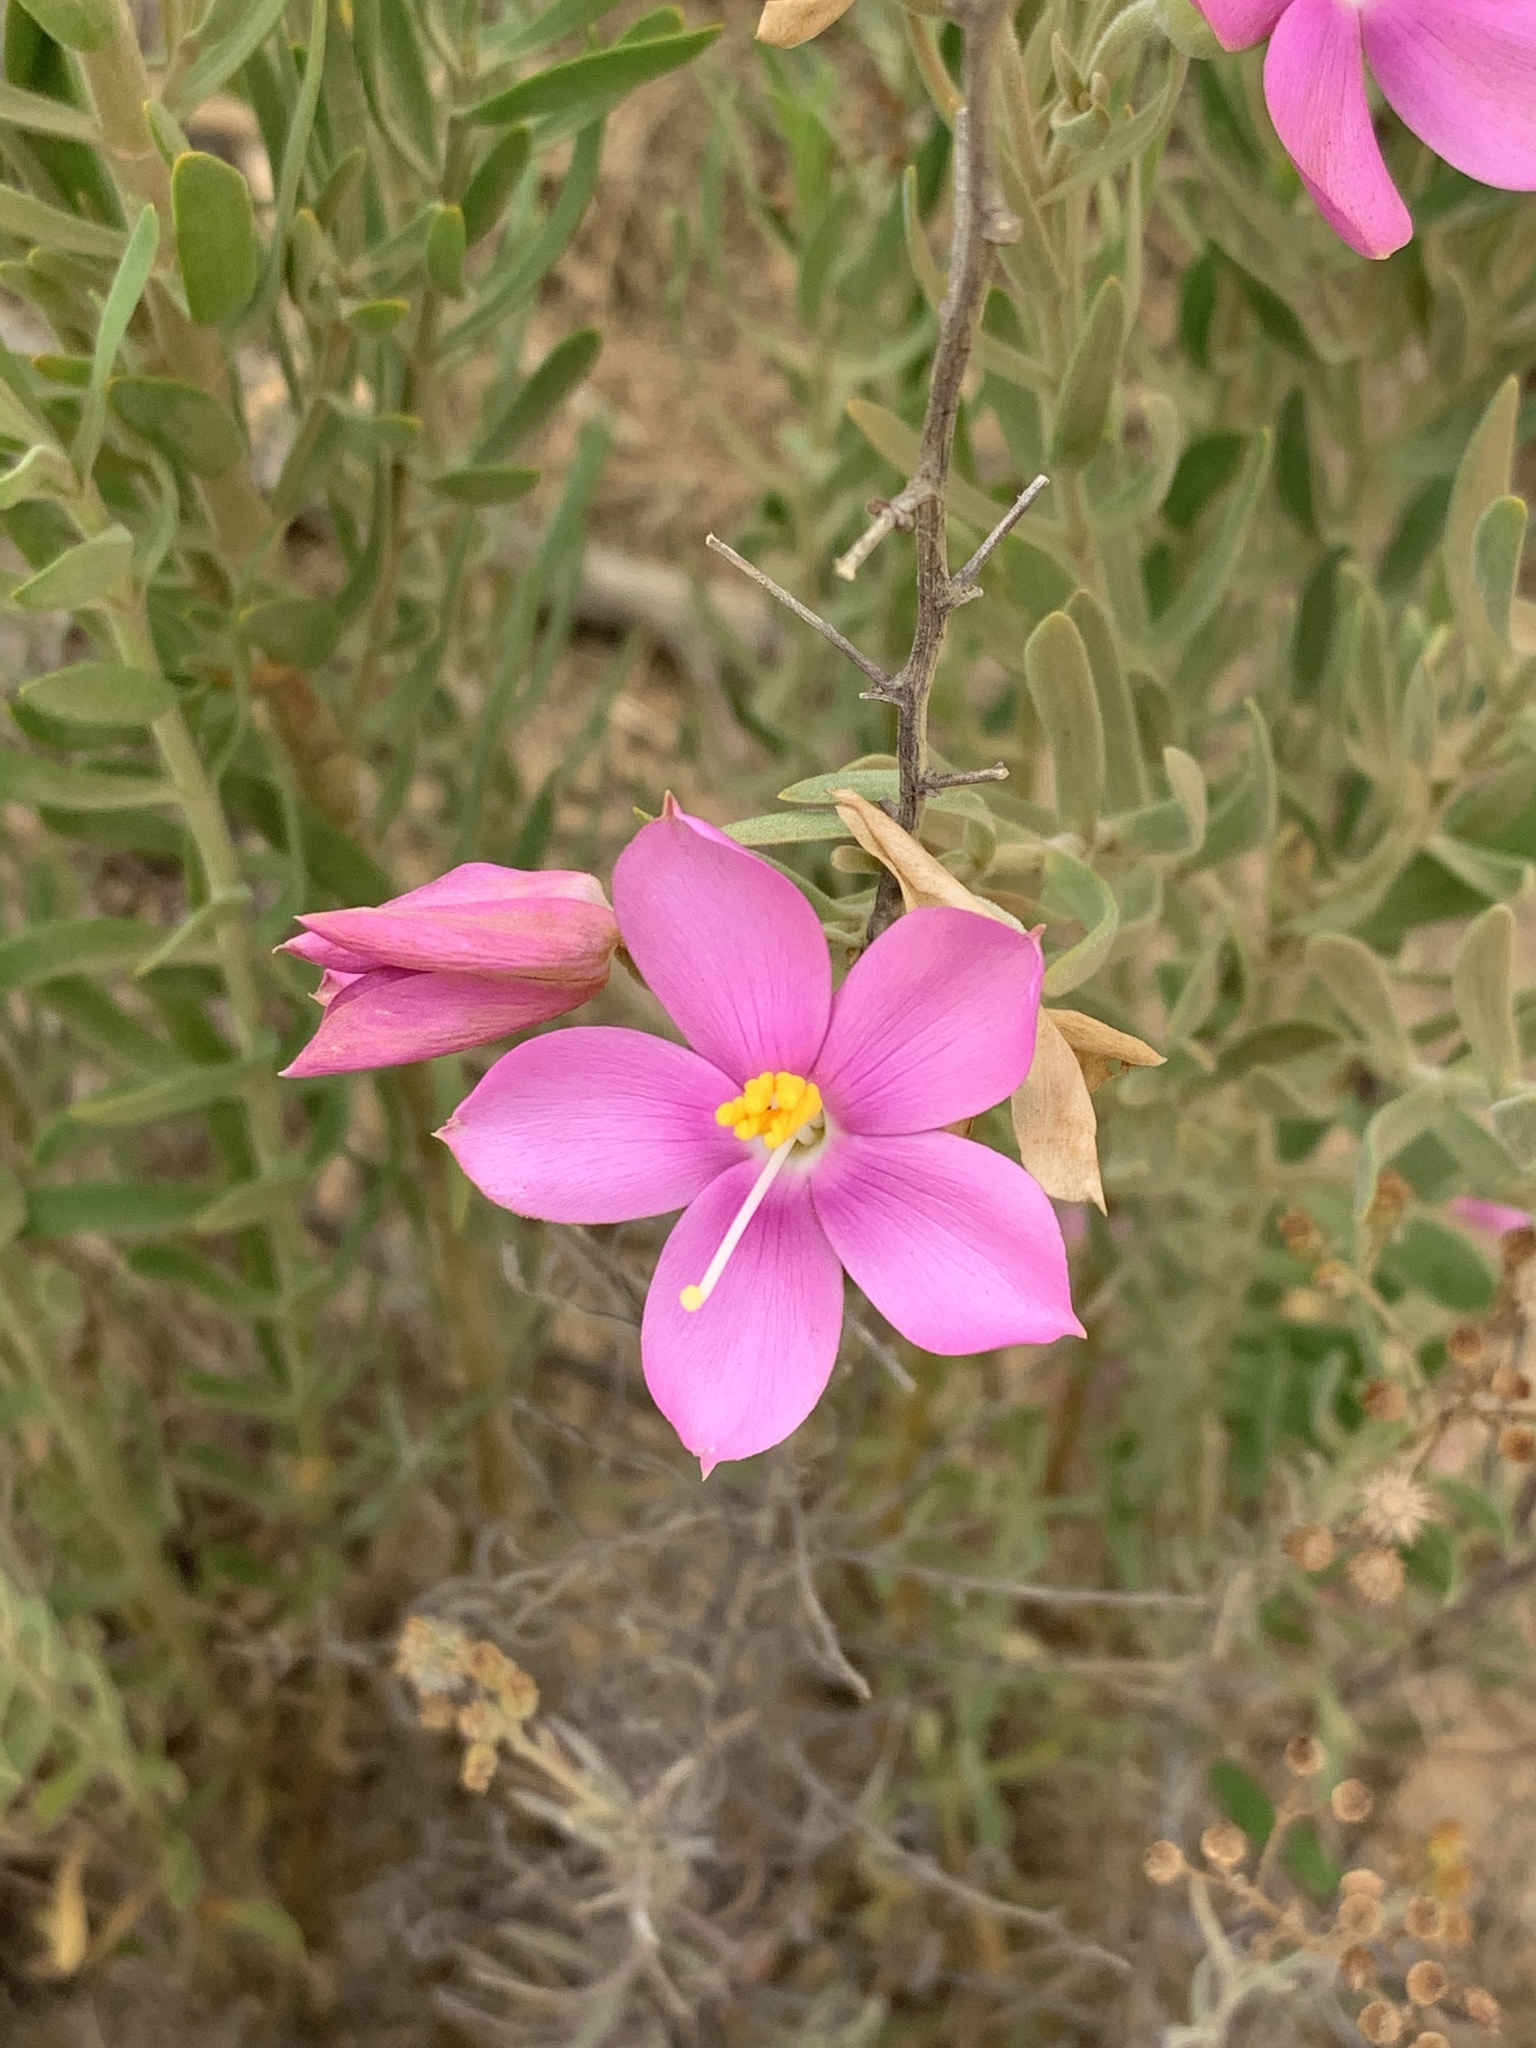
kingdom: Plantae
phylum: Tracheophyta
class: Magnoliopsida
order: Gentianales
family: Gentianaceae
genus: Orphium
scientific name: Orphium frutescens
